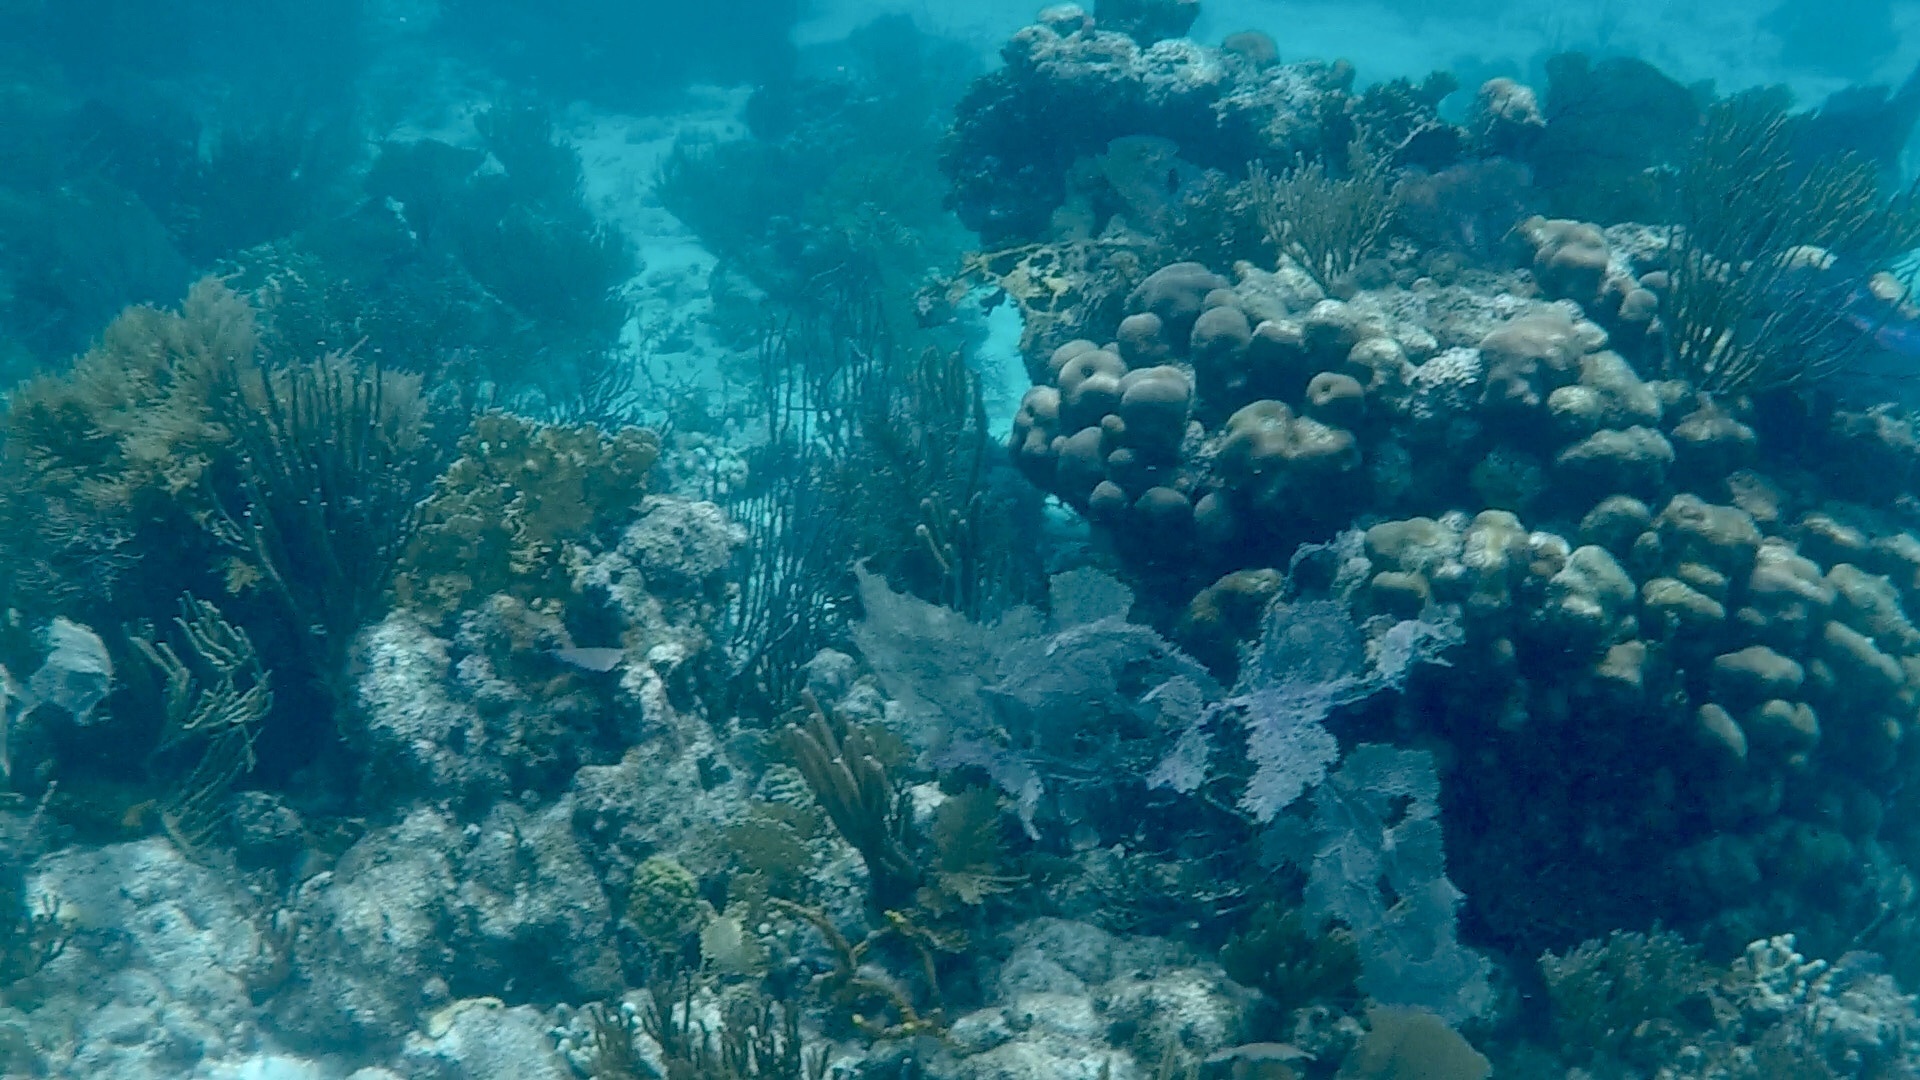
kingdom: Animalia
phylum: Cnidaria
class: Anthozoa
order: Scleractinia
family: Merulinidae
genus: Orbicella
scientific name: Orbicella annularis
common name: Boulder star coral
